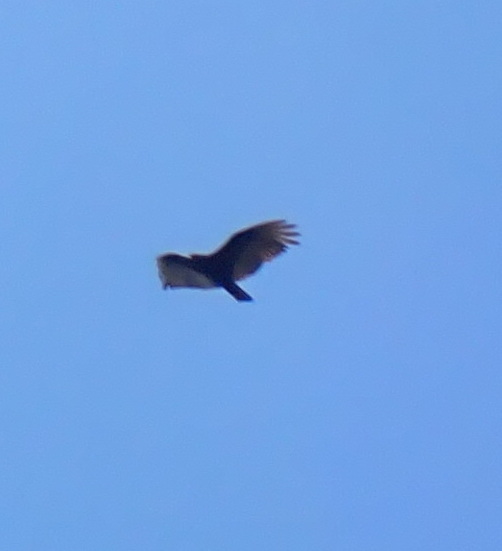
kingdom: Animalia
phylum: Chordata
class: Aves
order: Accipitriformes
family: Cathartidae
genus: Cathartes
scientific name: Cathartes aura
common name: Turkey vulture
